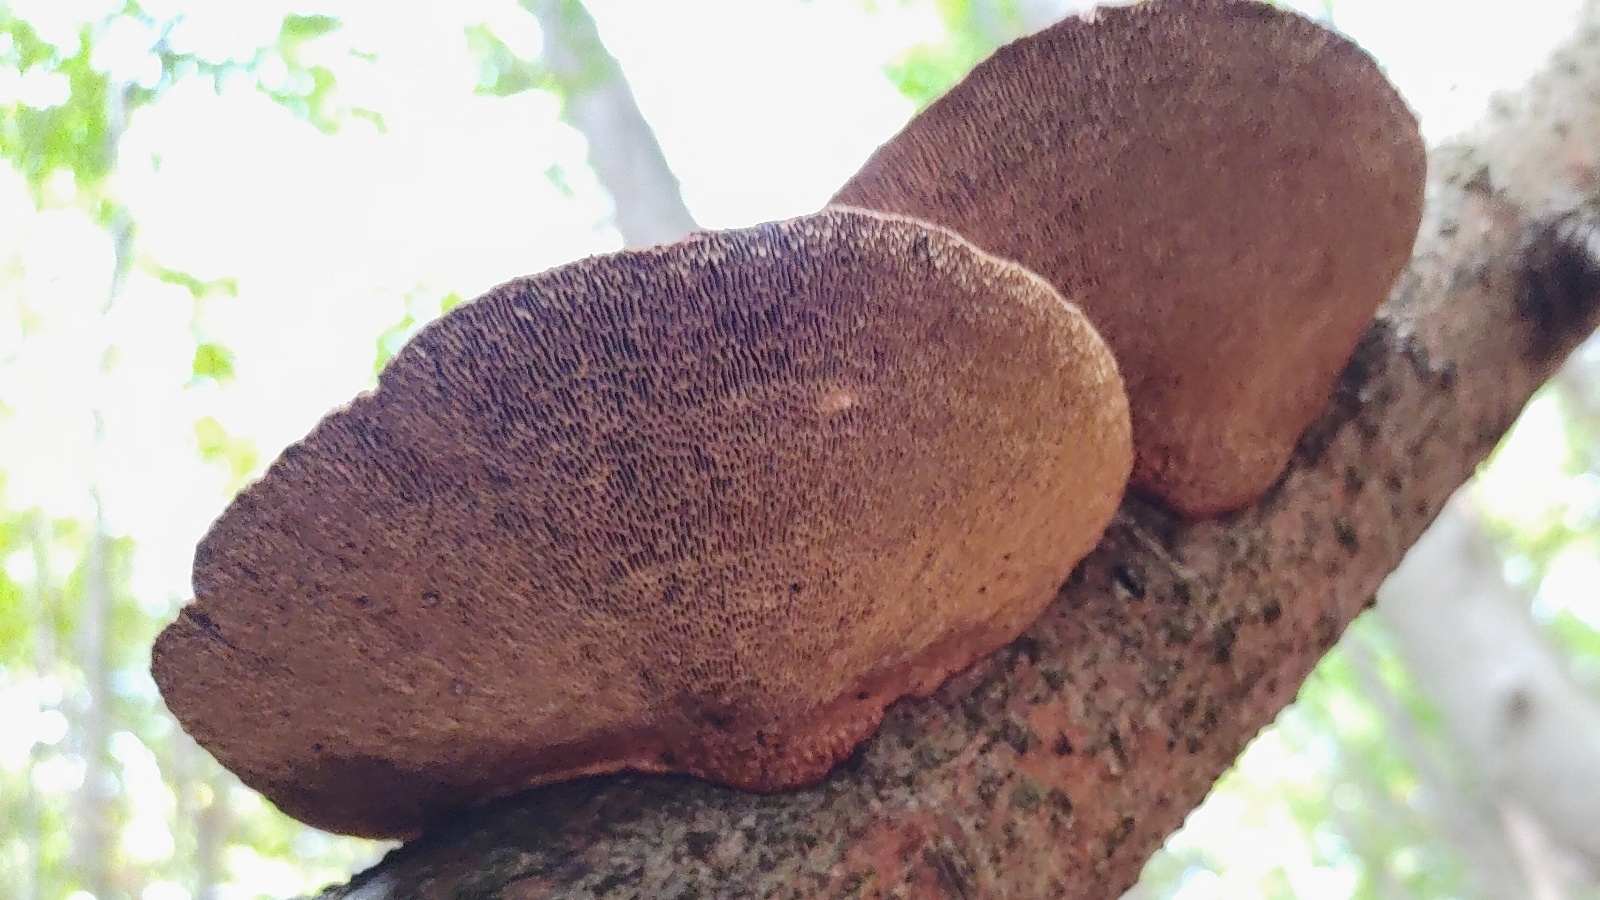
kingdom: Fungi
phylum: Basidiomycota
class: Agaricomycetes
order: Polyporales
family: Polyporaceae
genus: Daedaleopsis
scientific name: Daedaleopsis confragosa
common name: Blushing bracket
